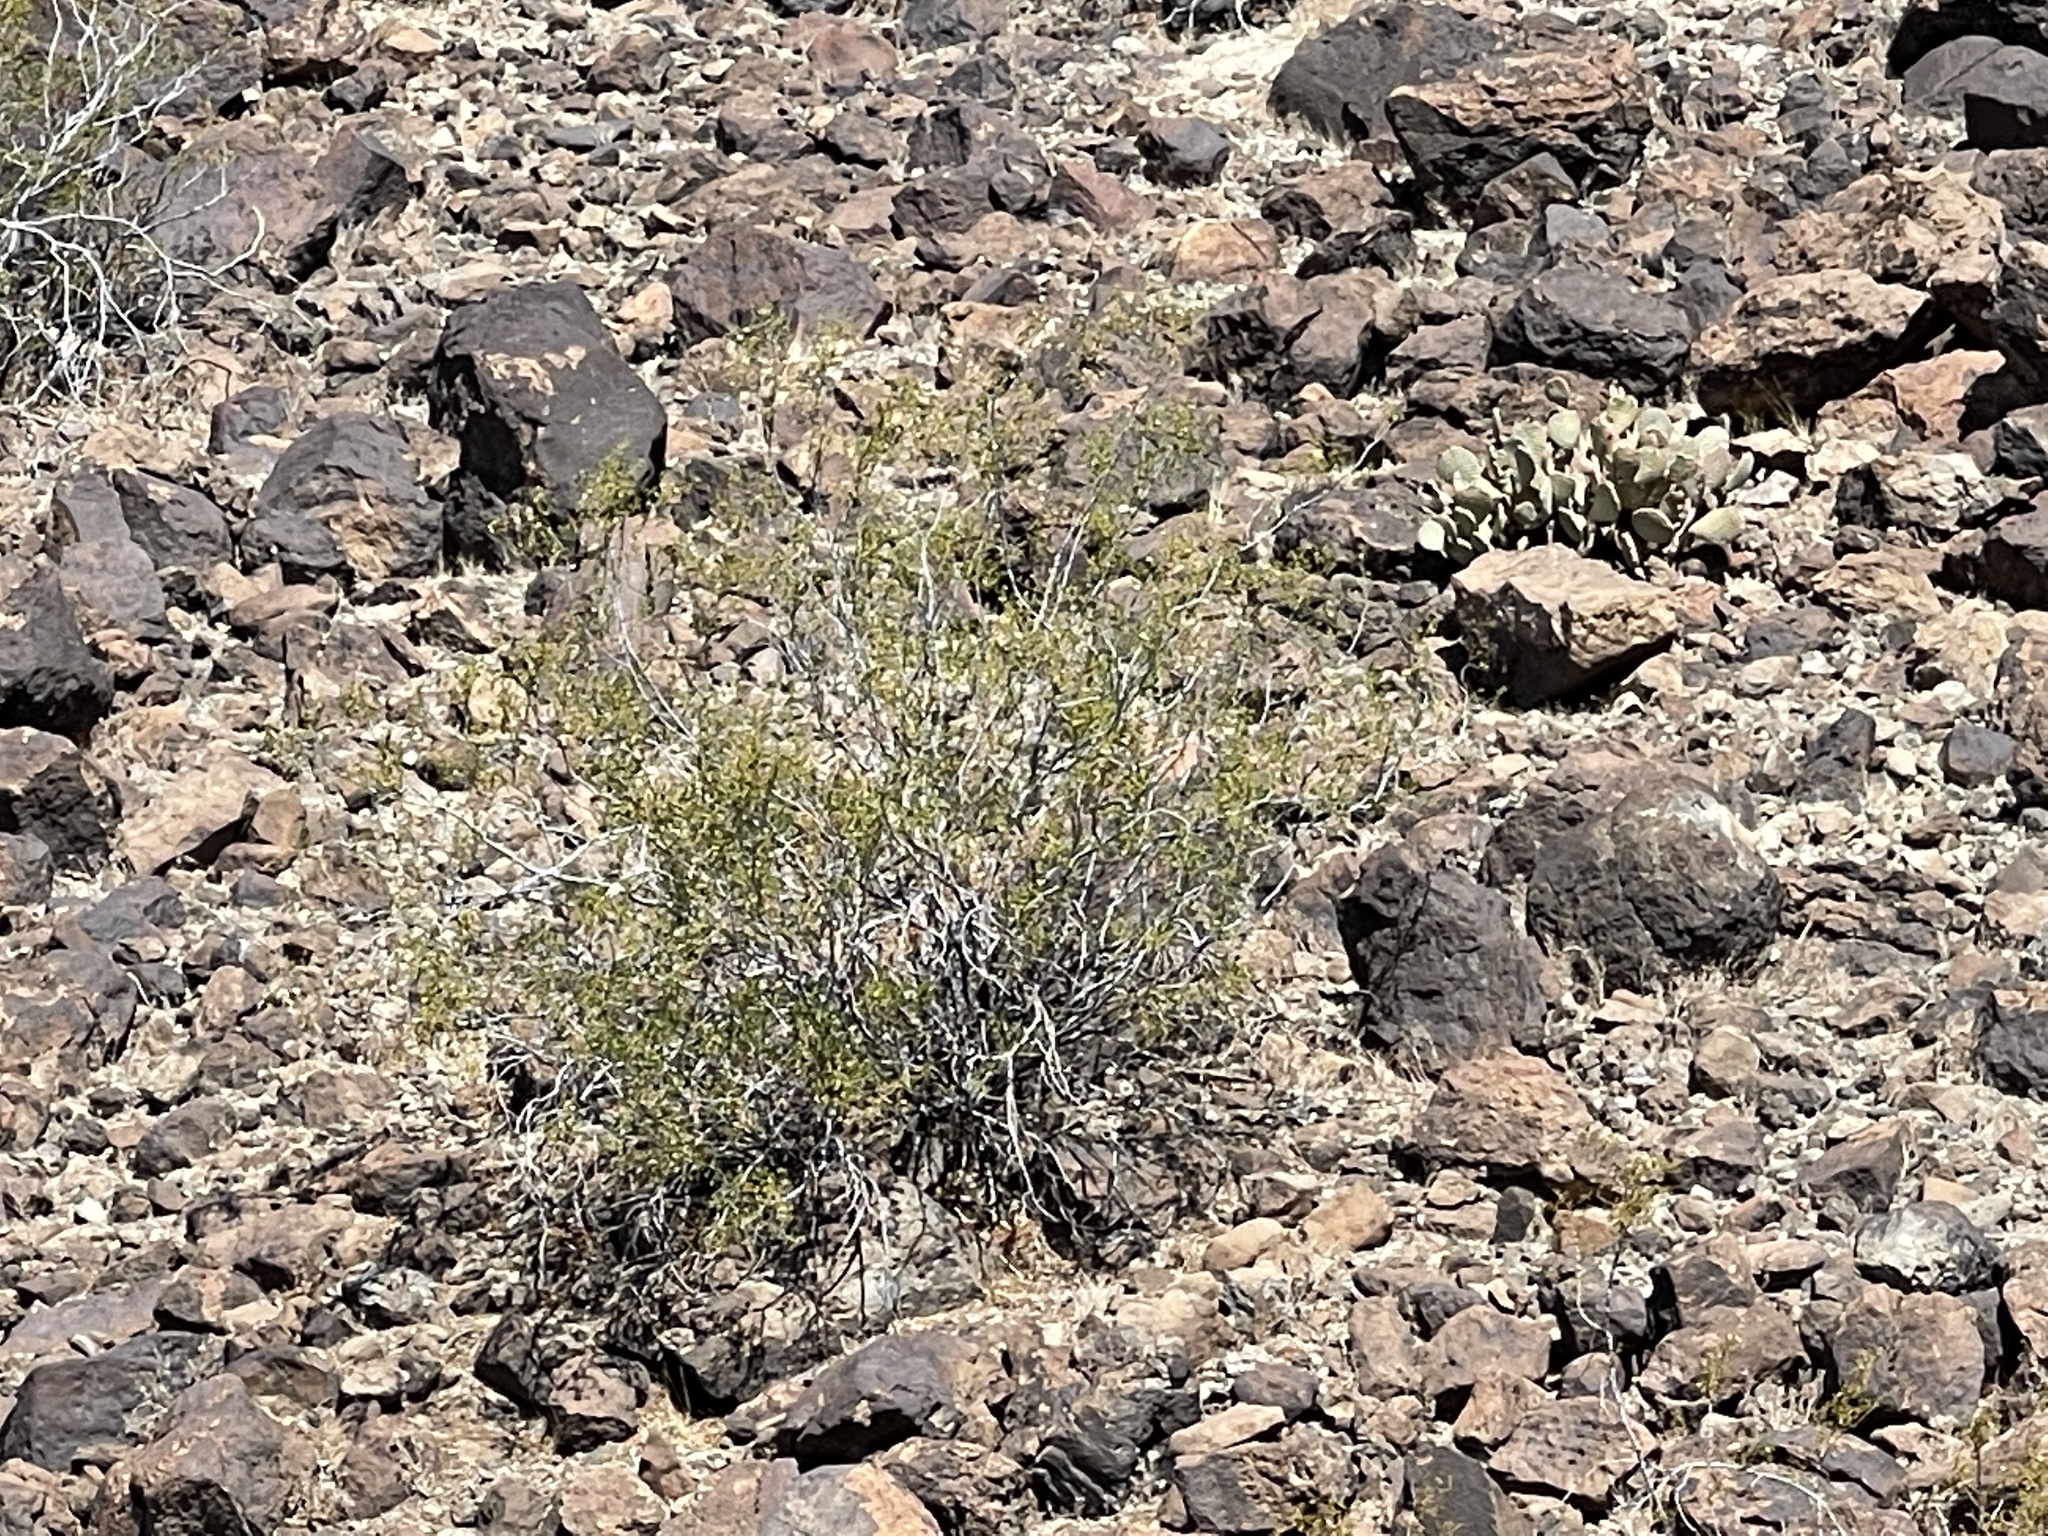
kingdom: Plantae
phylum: Tracheophyta
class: Magnoliopsida
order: Zygophyllales
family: Zygophyllaceae
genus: Larrea
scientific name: Larrea tridentata
